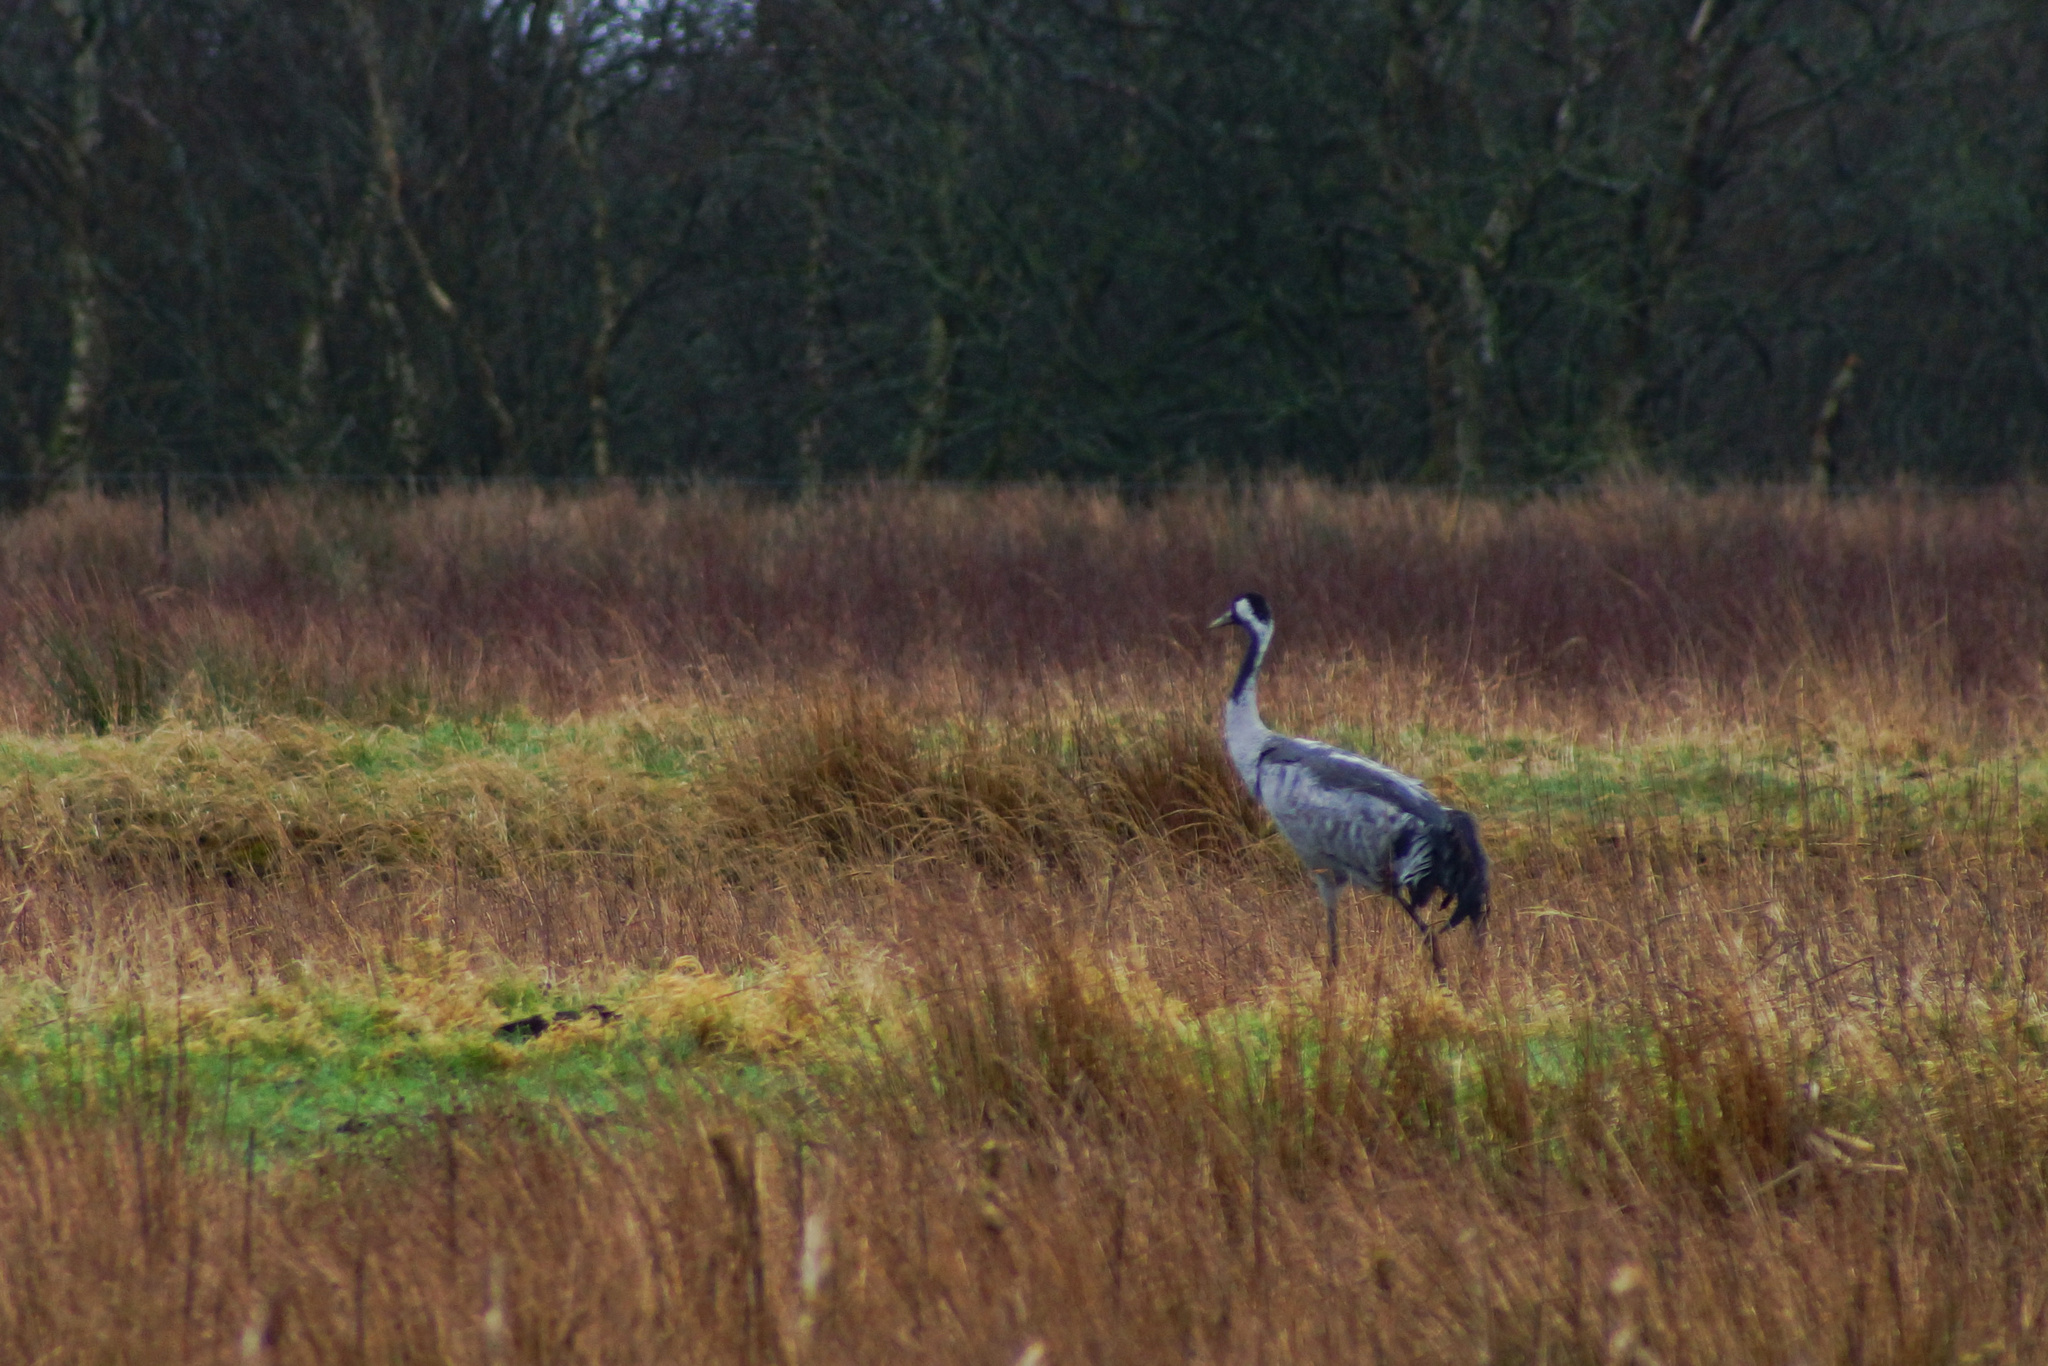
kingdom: Animalia
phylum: Chordata
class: Aves
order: Gruiformes
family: Gruidae
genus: Grus
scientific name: Grus grus
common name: Common crane
